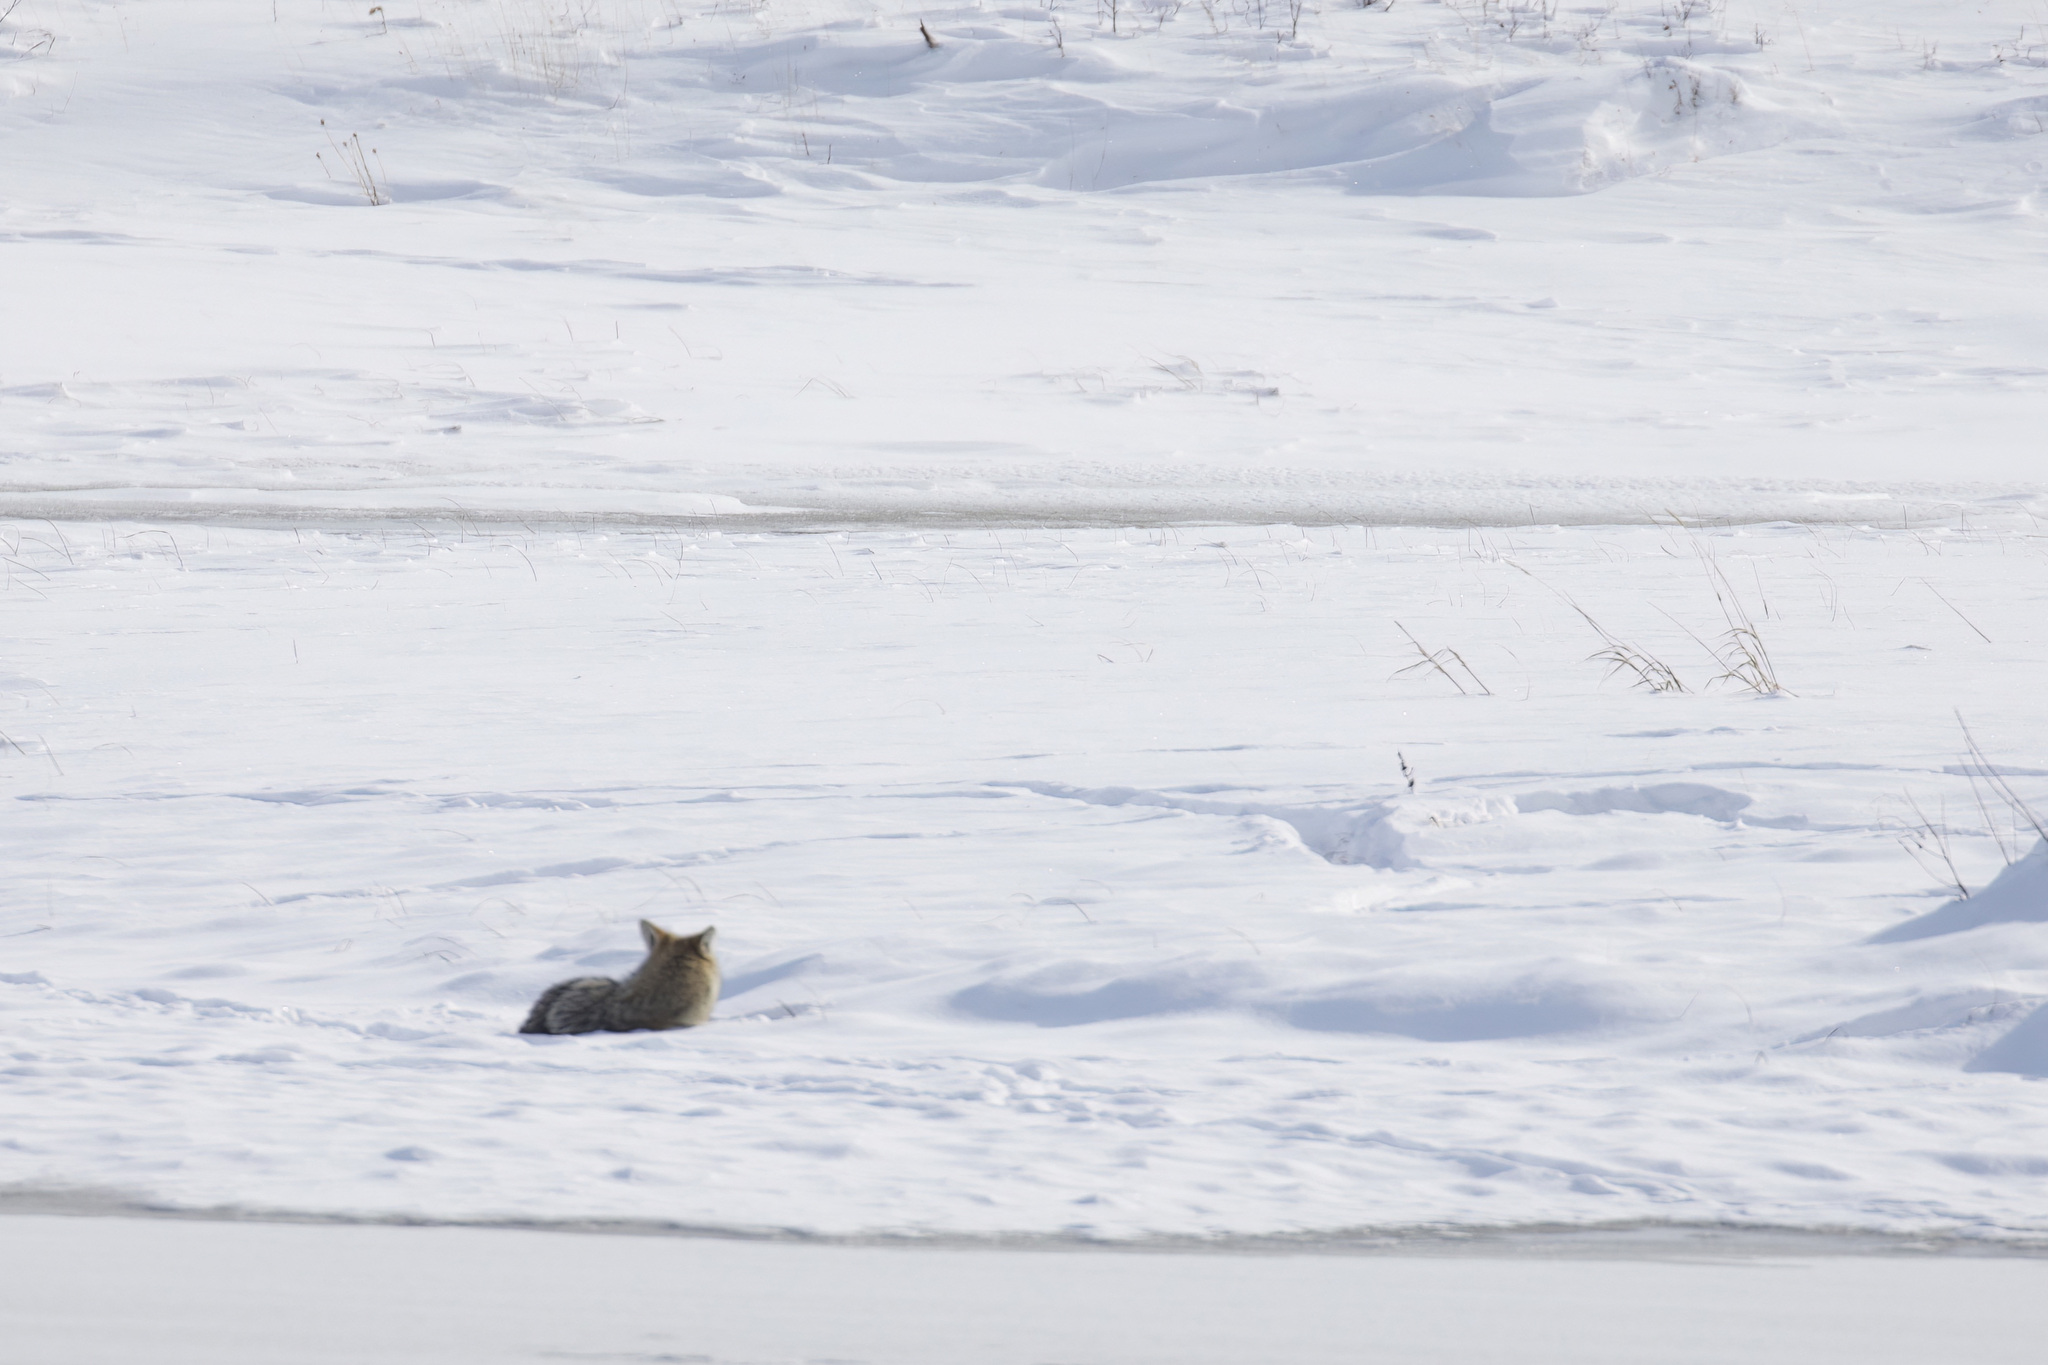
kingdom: Animalia
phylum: Chordata
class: Mammalia
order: Carnivora
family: Canidae
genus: Canis
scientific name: Canis latrans
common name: Coyote
